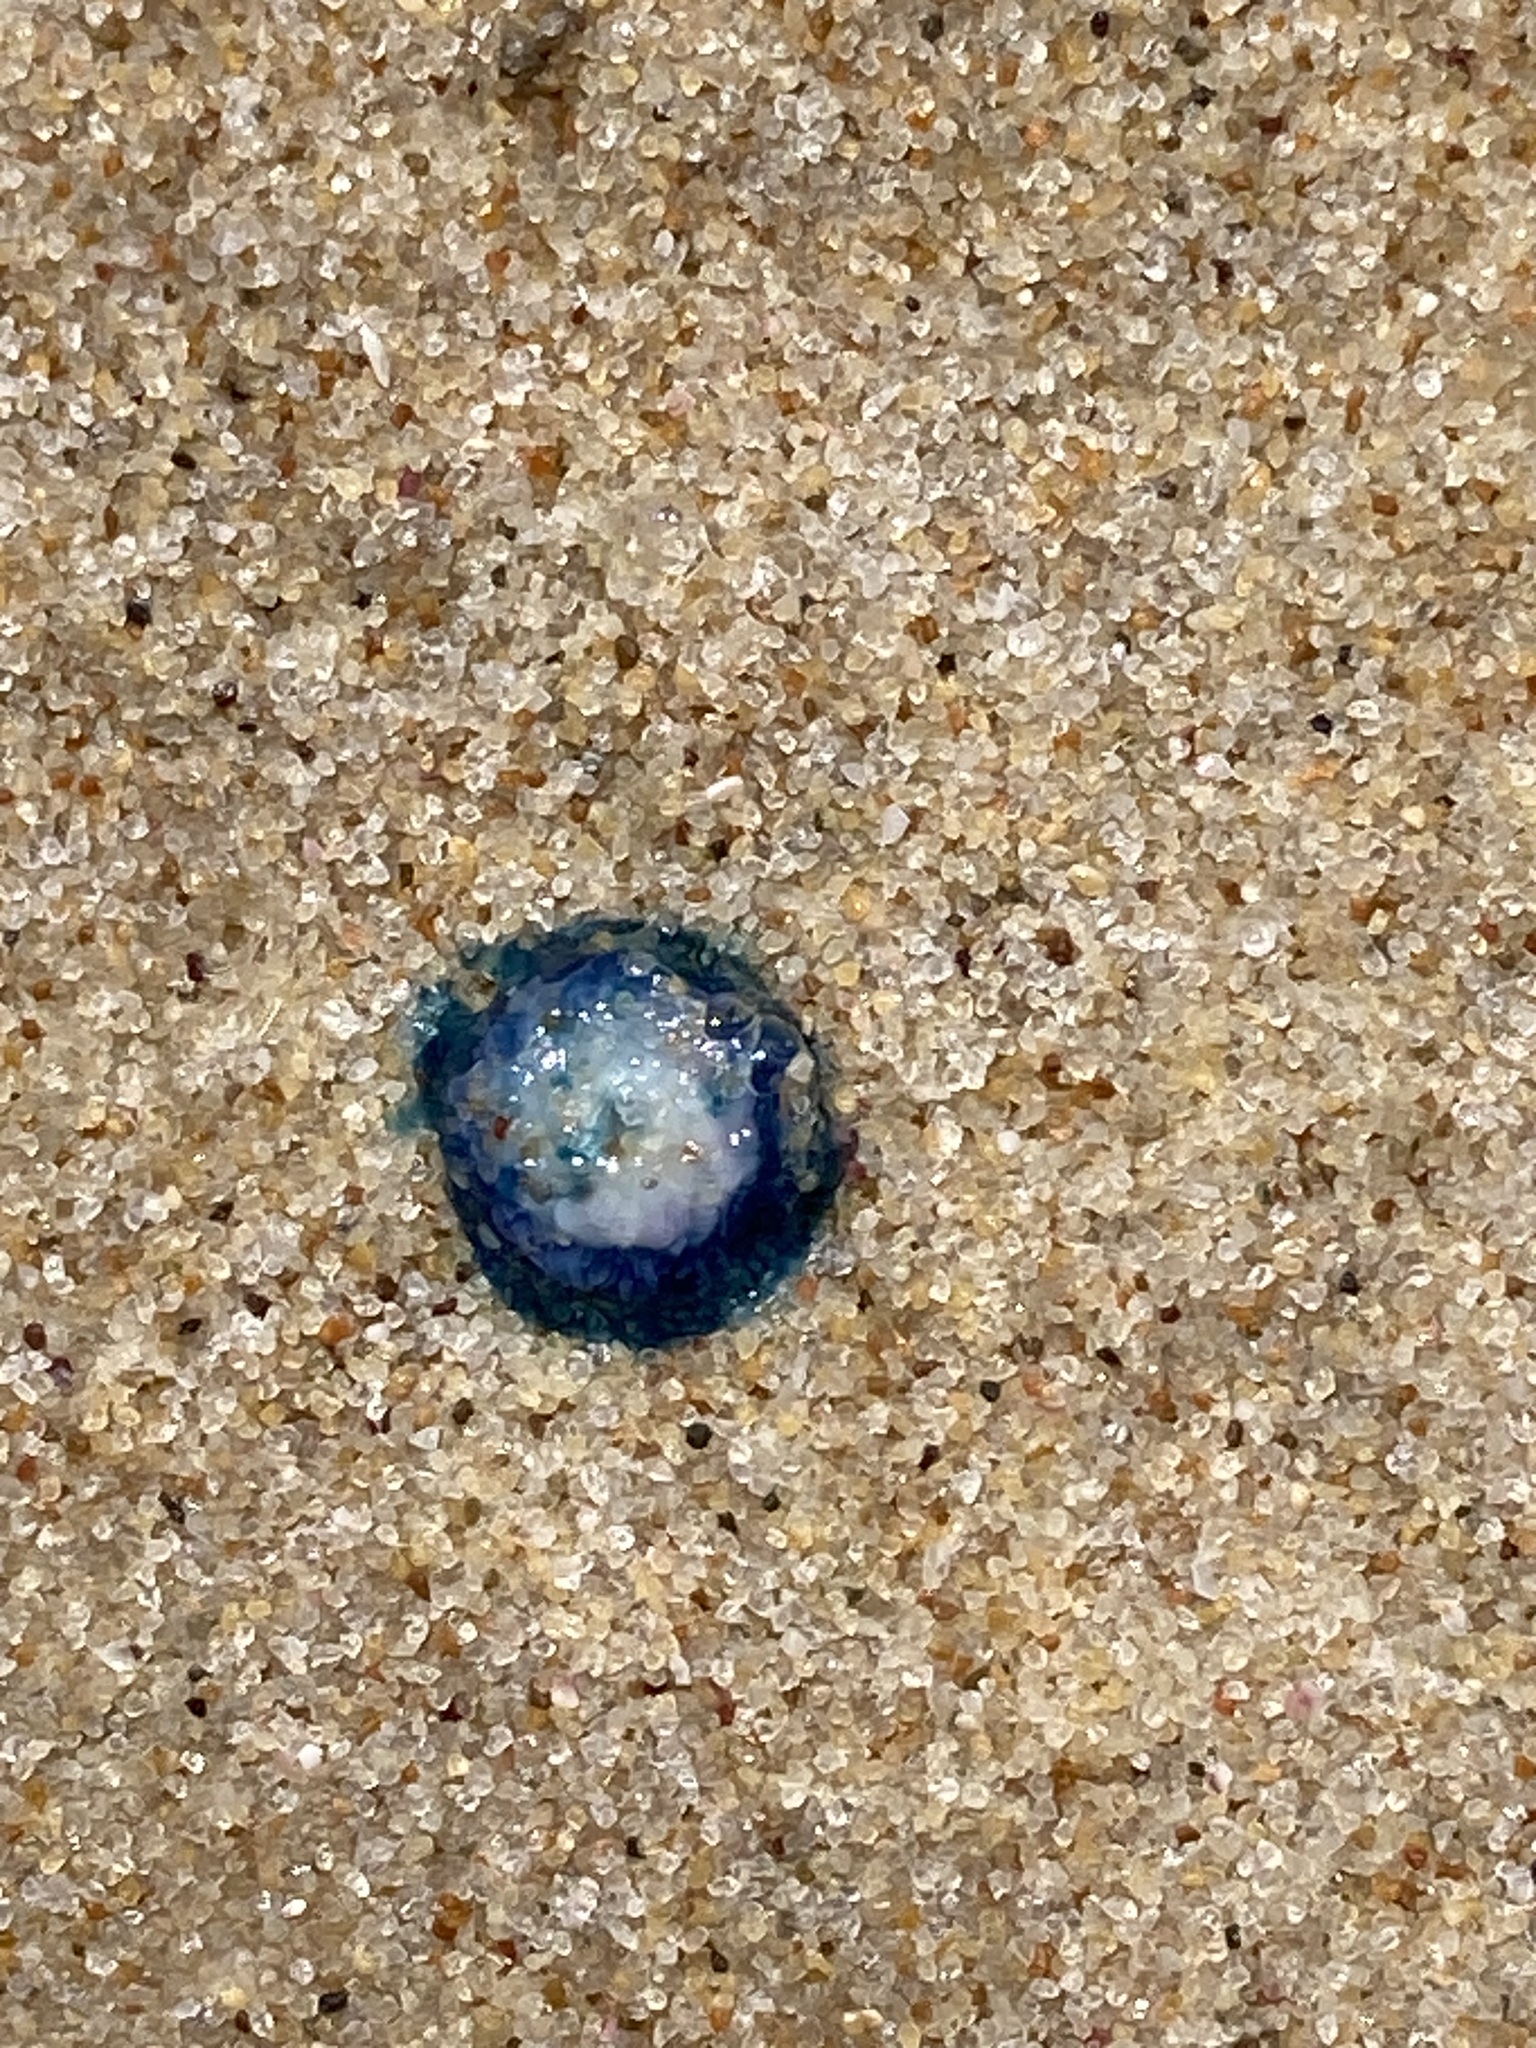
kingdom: Animalia
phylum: Cnidaria
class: Hydrozoa
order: Anthoathecata
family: Porpitidae
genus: Porpita
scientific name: Porpita porpita
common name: Blue button
